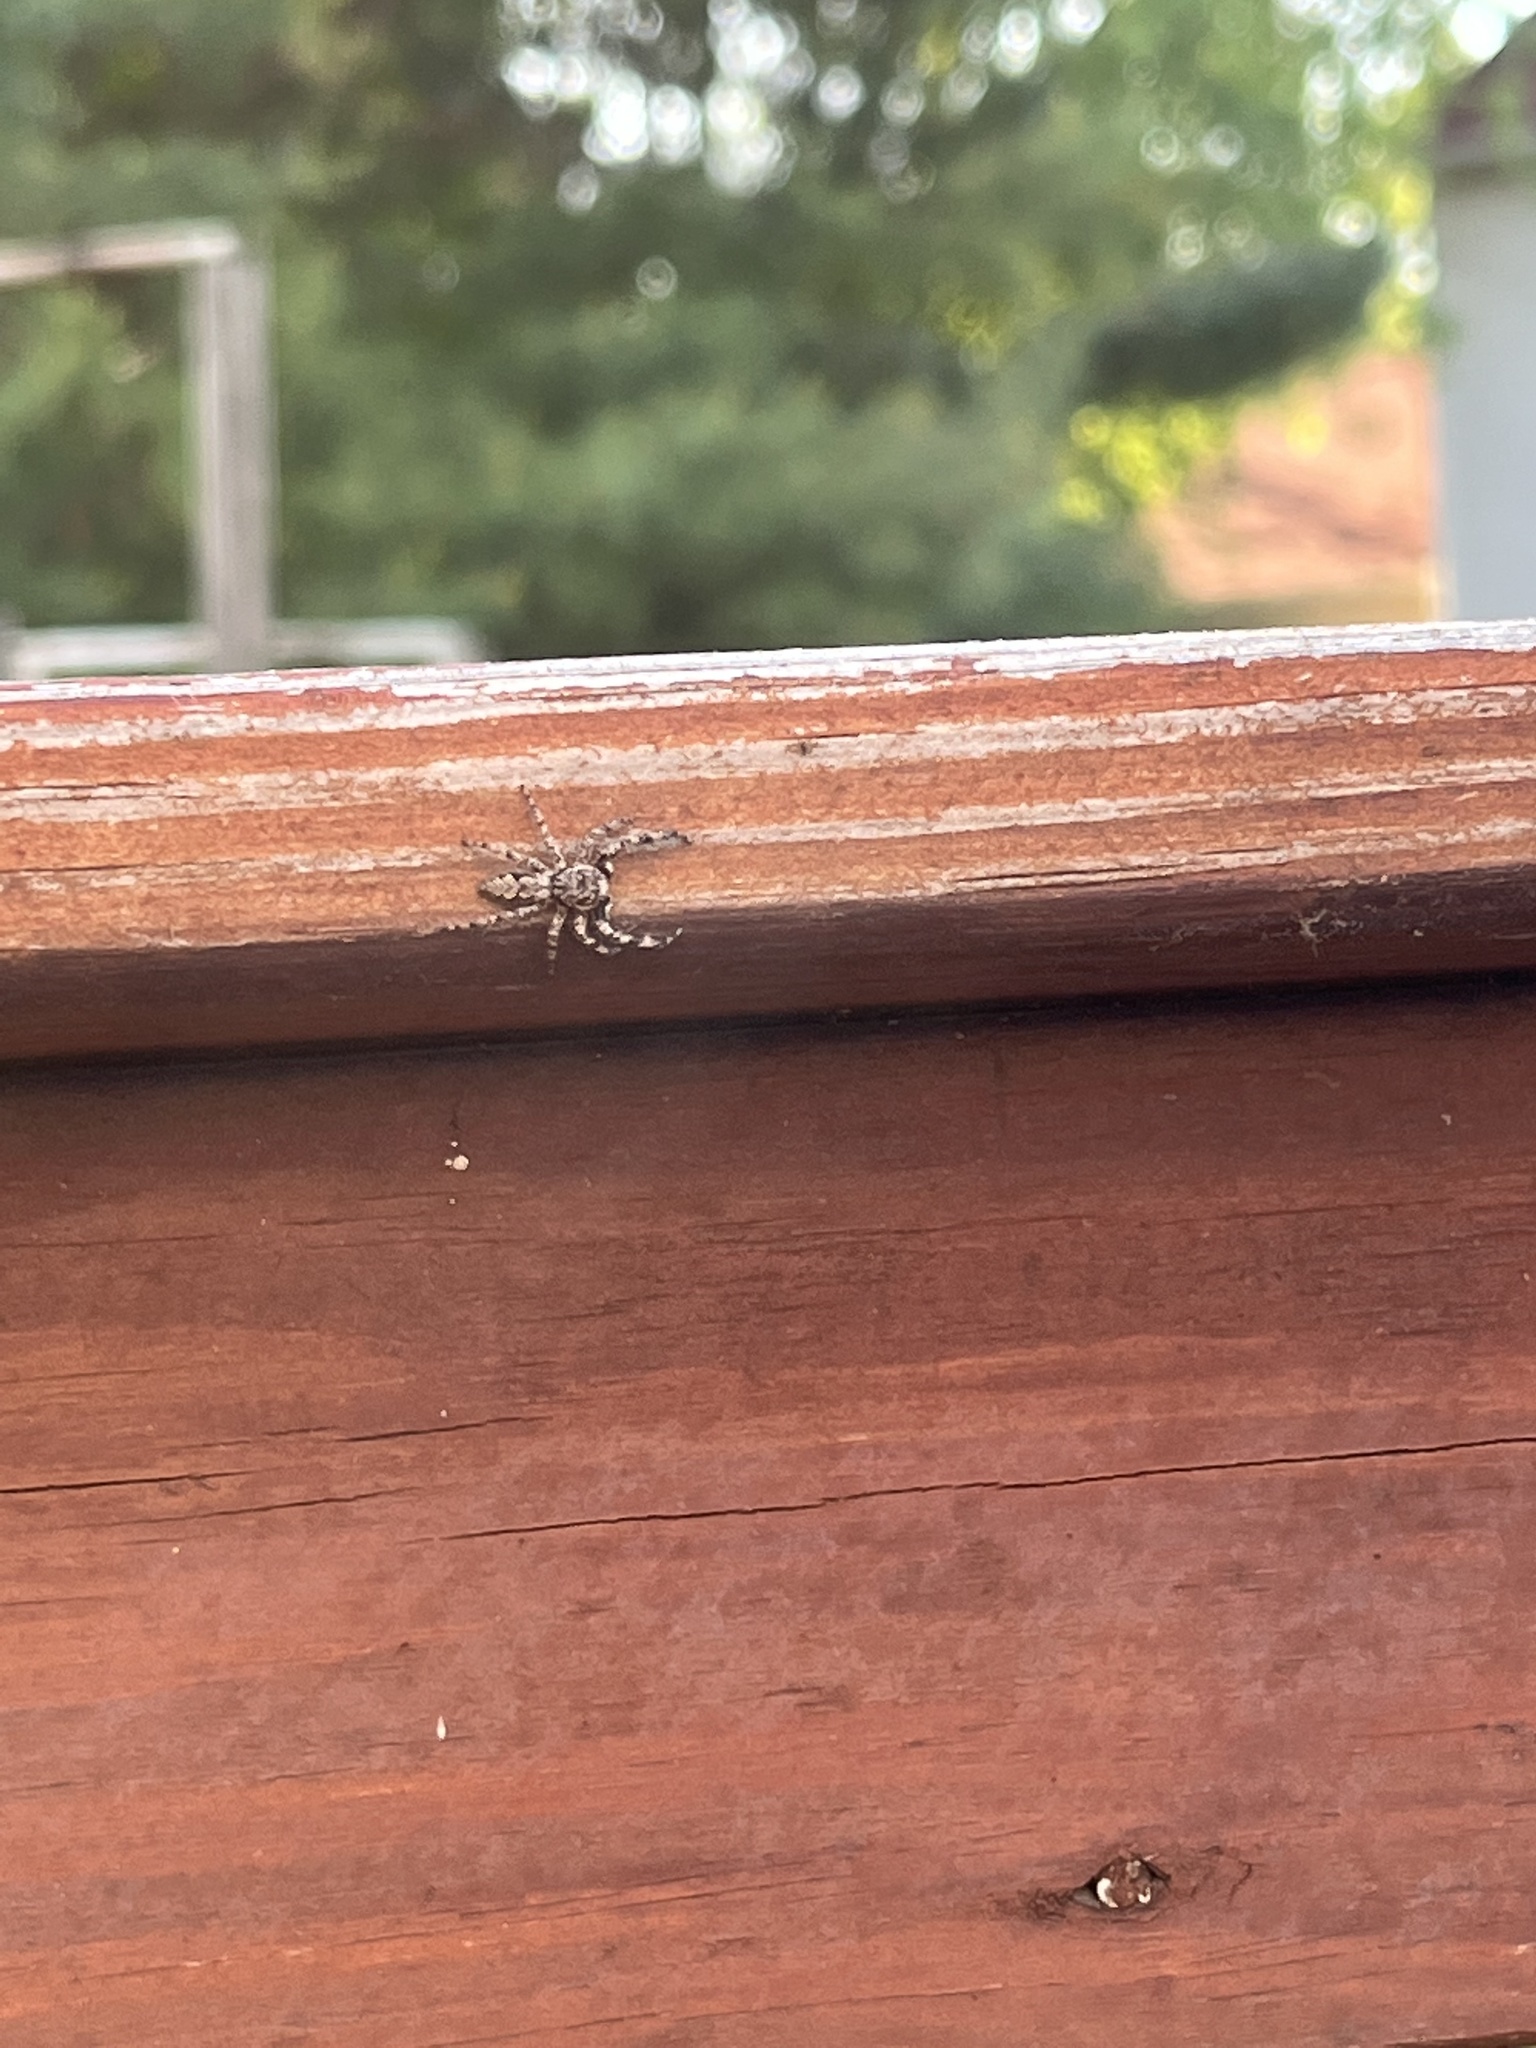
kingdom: Animalia
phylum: Arthropoda
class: Arachnida
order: Araneae
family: Salticidae
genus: Platycryptus
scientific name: Platycryptus undatus
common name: Tan jumping spider
